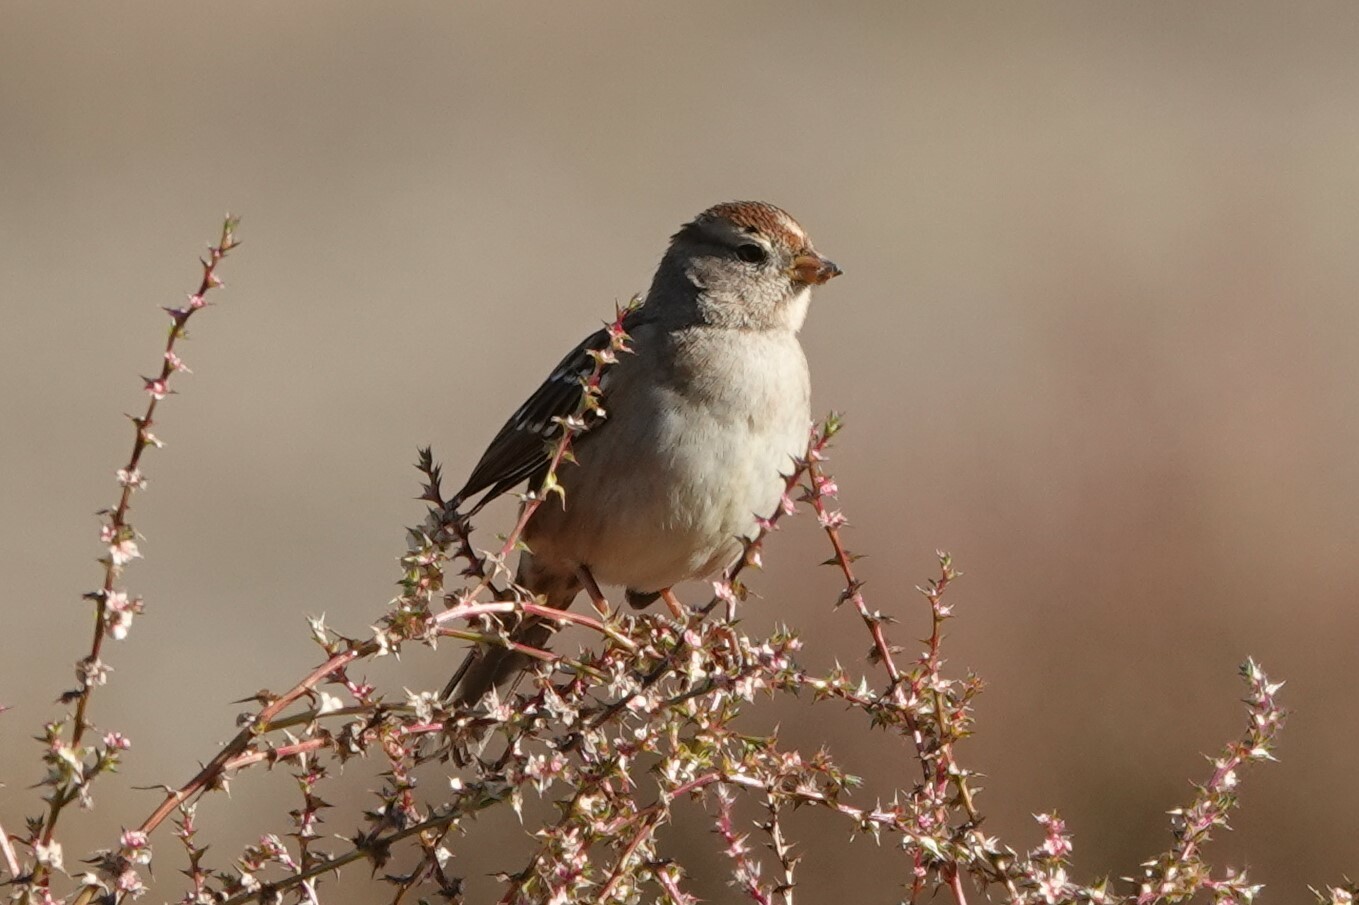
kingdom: Animalia
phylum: Chordata
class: Aves
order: Passeriformes
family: Passerellidae
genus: Zonotrichia
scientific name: Zonotrichia leucophrys
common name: White-crowned sparrow
